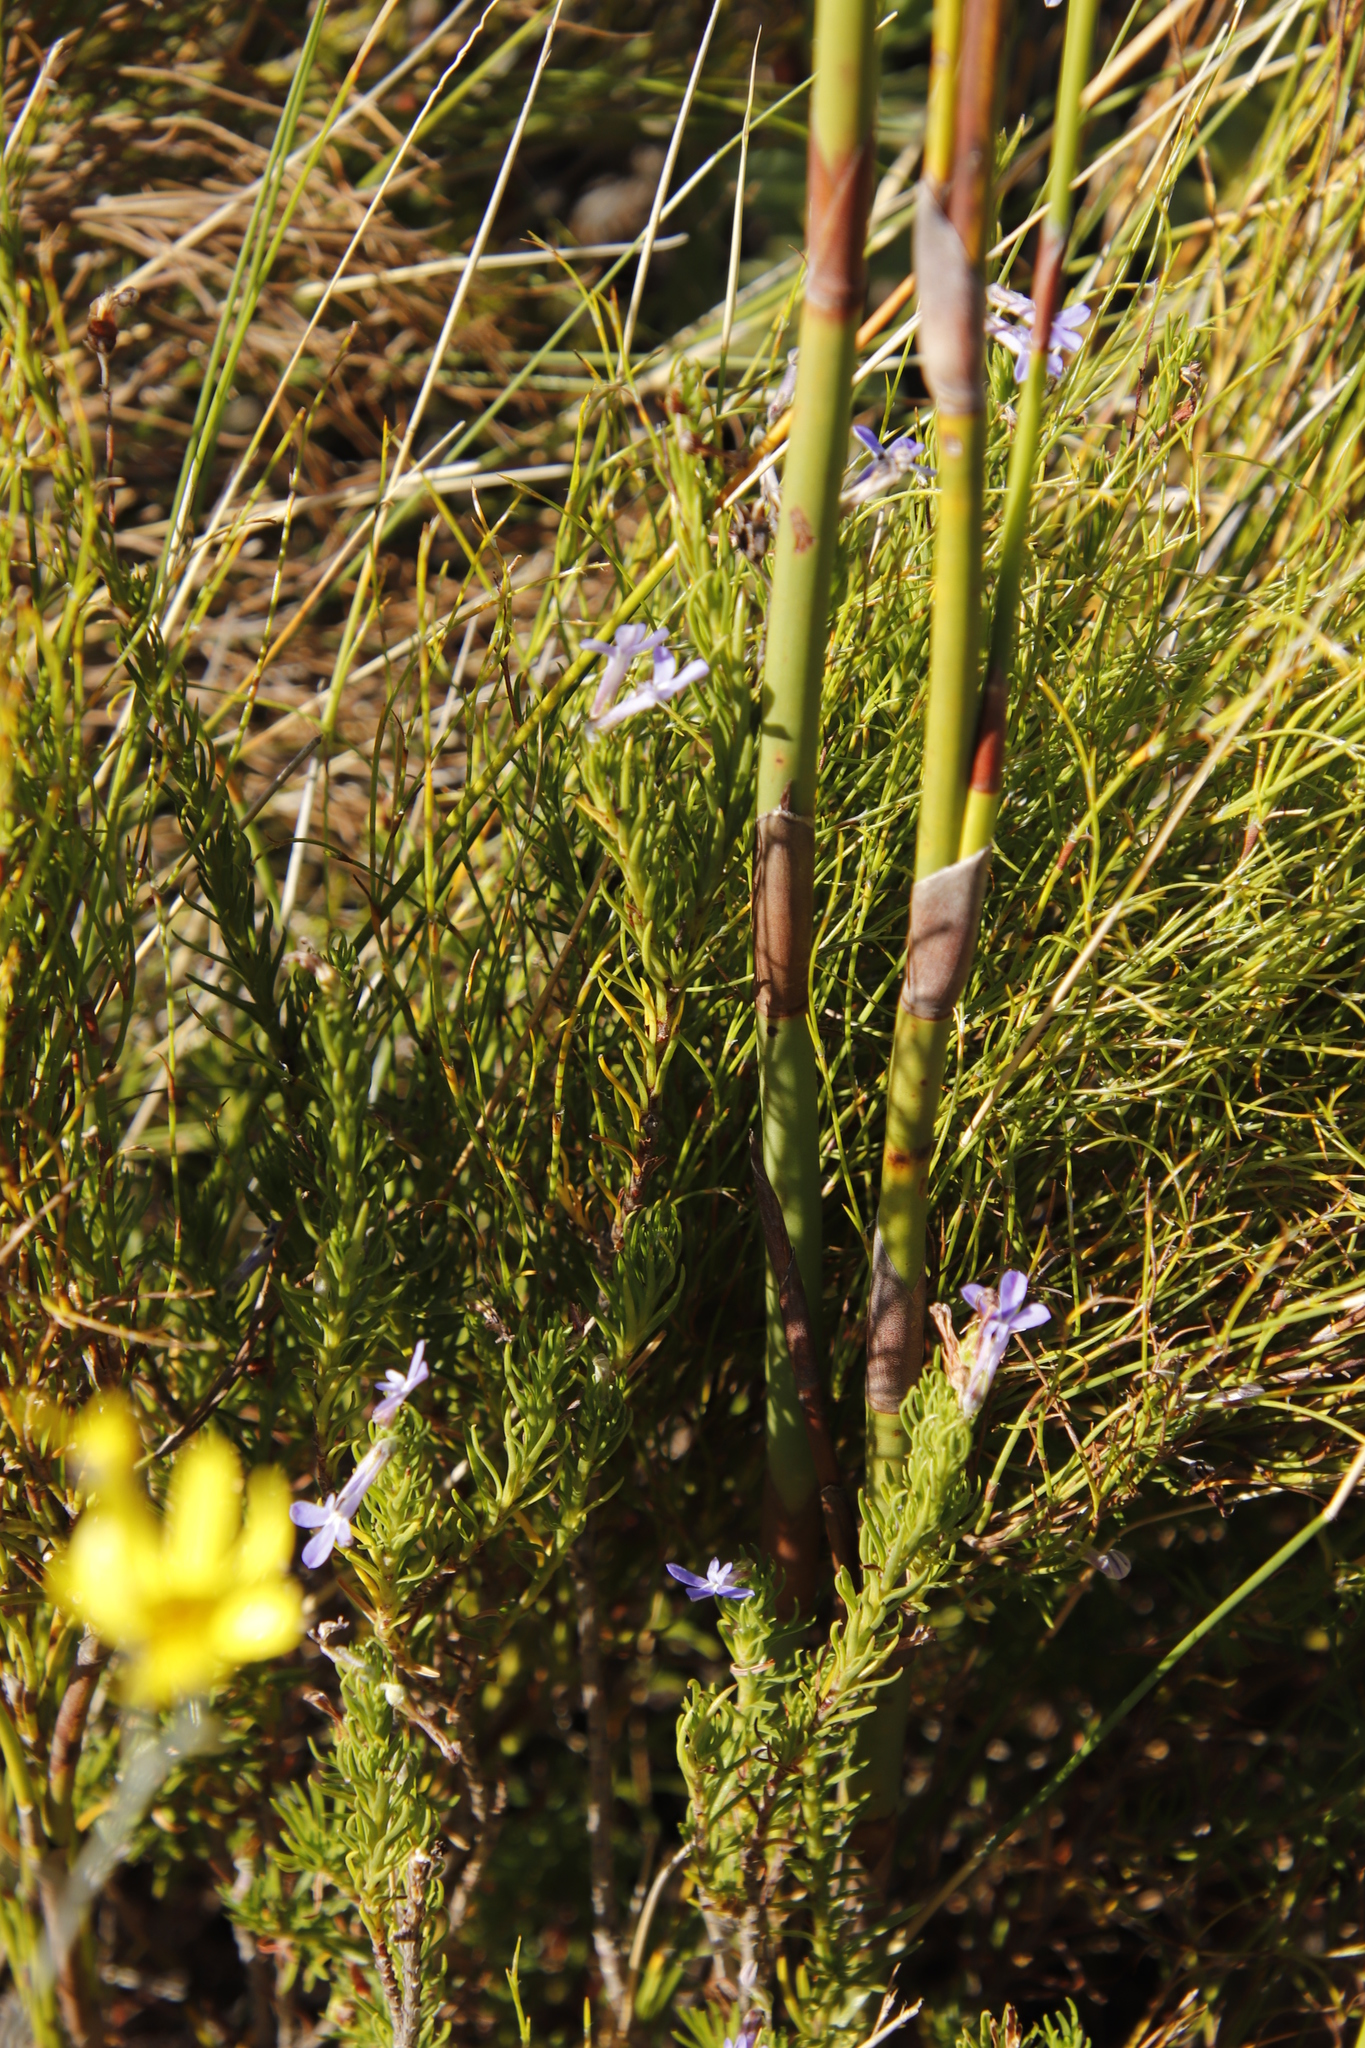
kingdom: Plantae
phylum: Tracheophyta
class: Magnoliopsida
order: Asterales
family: Campanulaceae
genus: Lobelia
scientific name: Lobelia pinifolia
